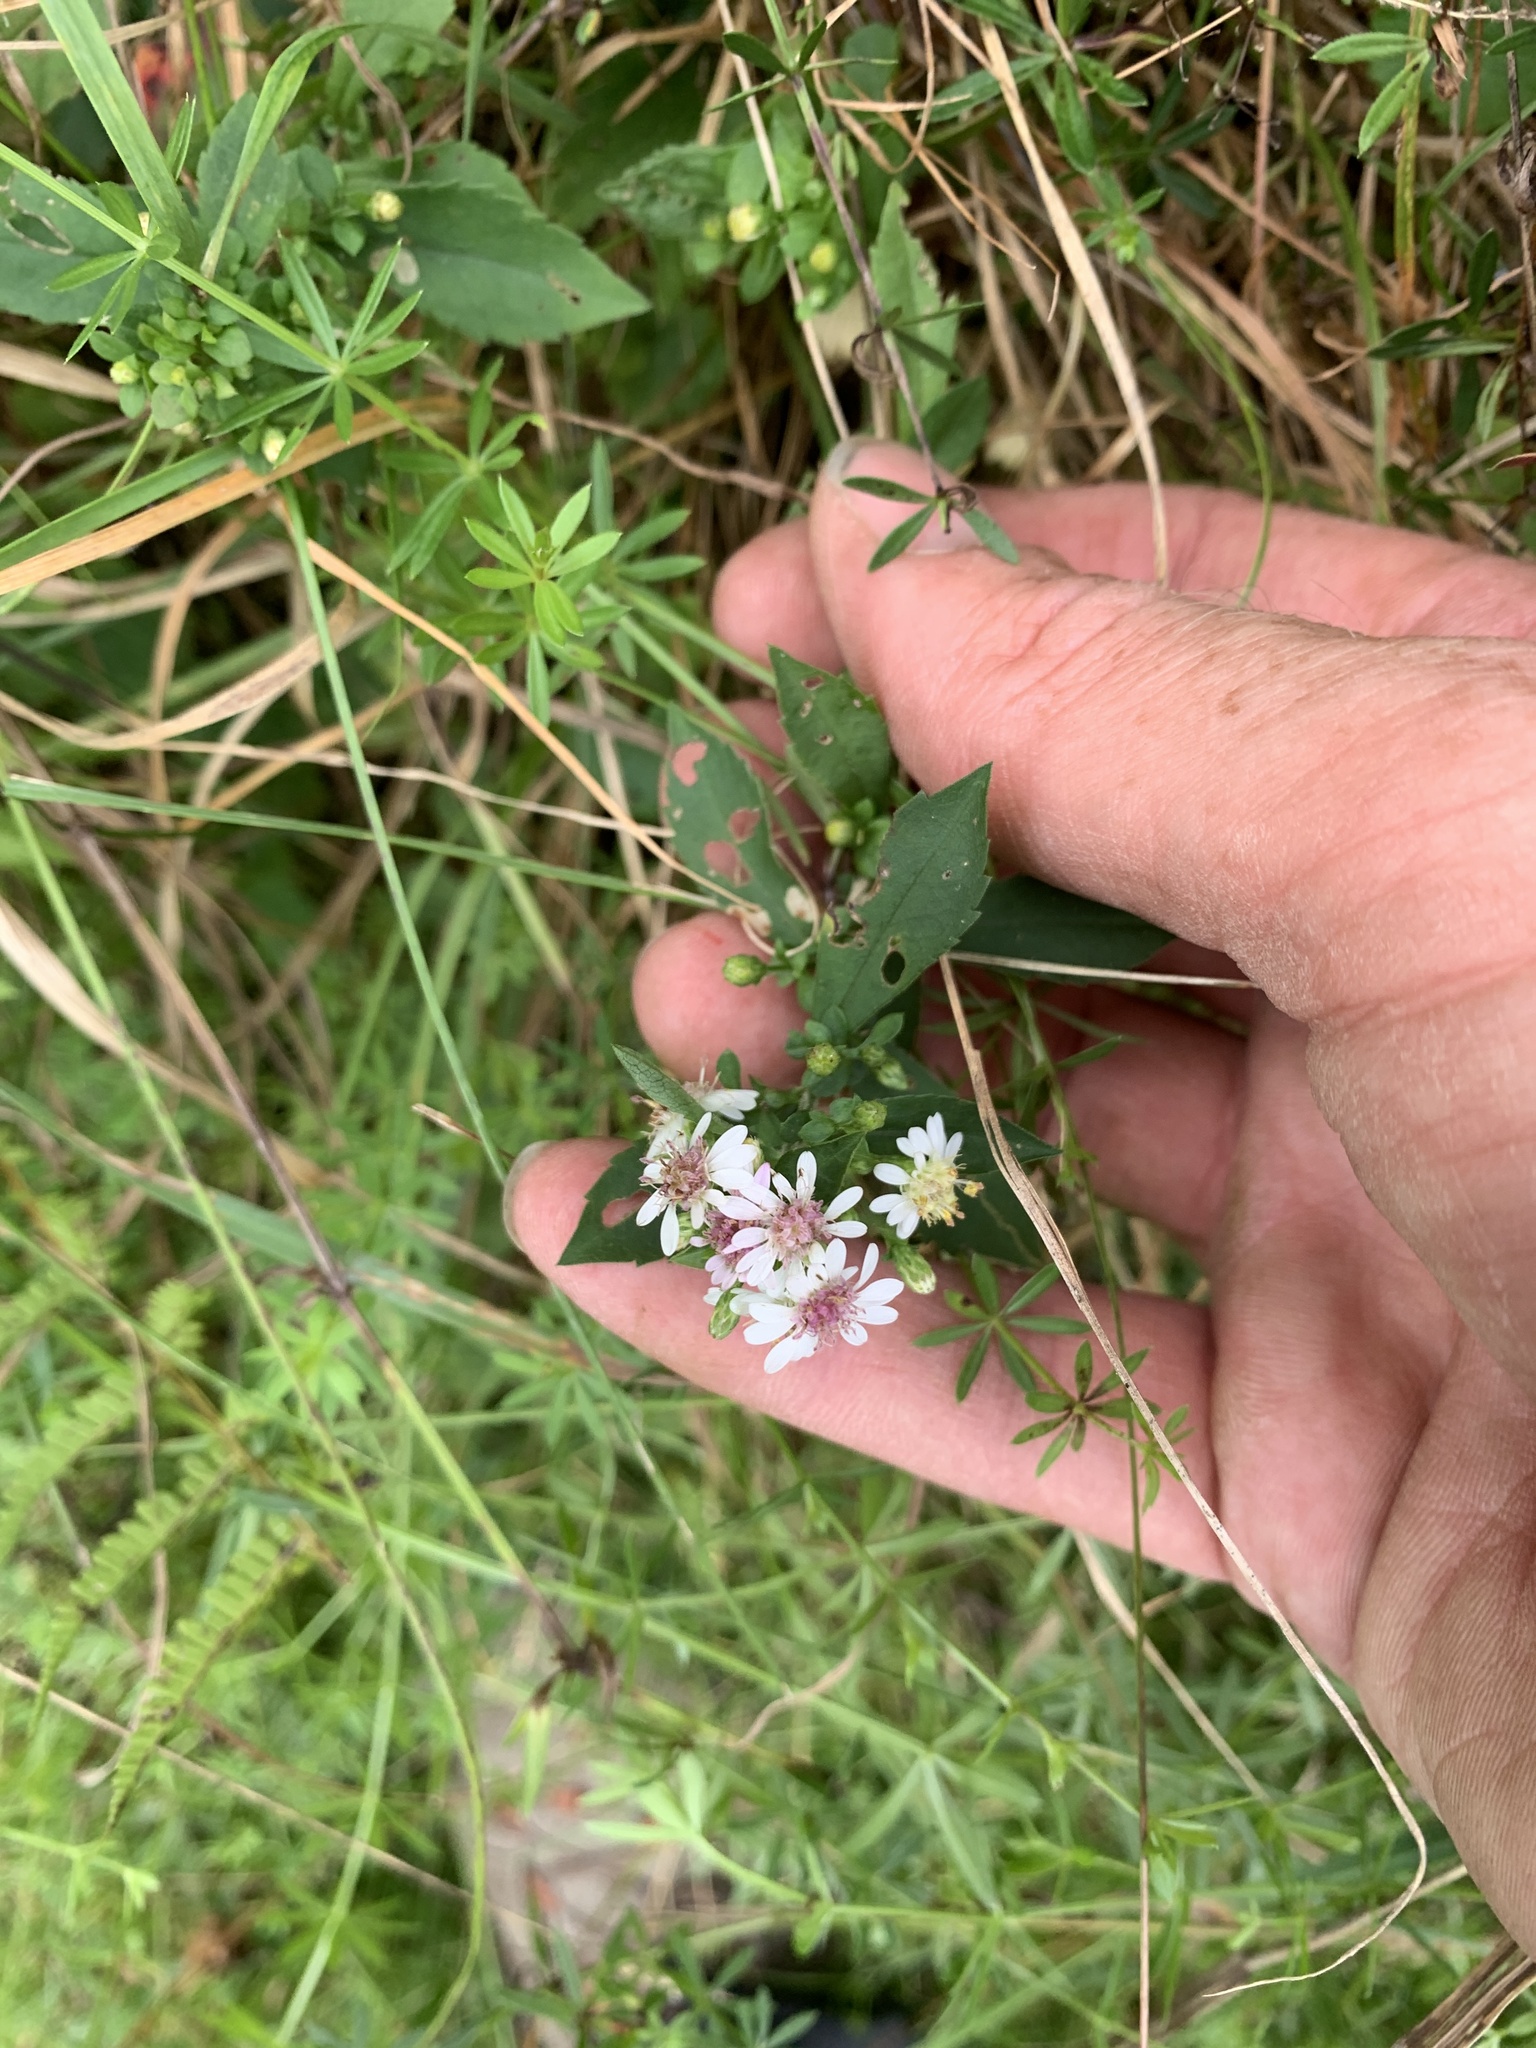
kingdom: Plantae
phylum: Tracheophyta
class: Magnoliopsida
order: Asterales
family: Asteraceae
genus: Symphyotrichum
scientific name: Symphyotrichum lateriflorum
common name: Calico aster
